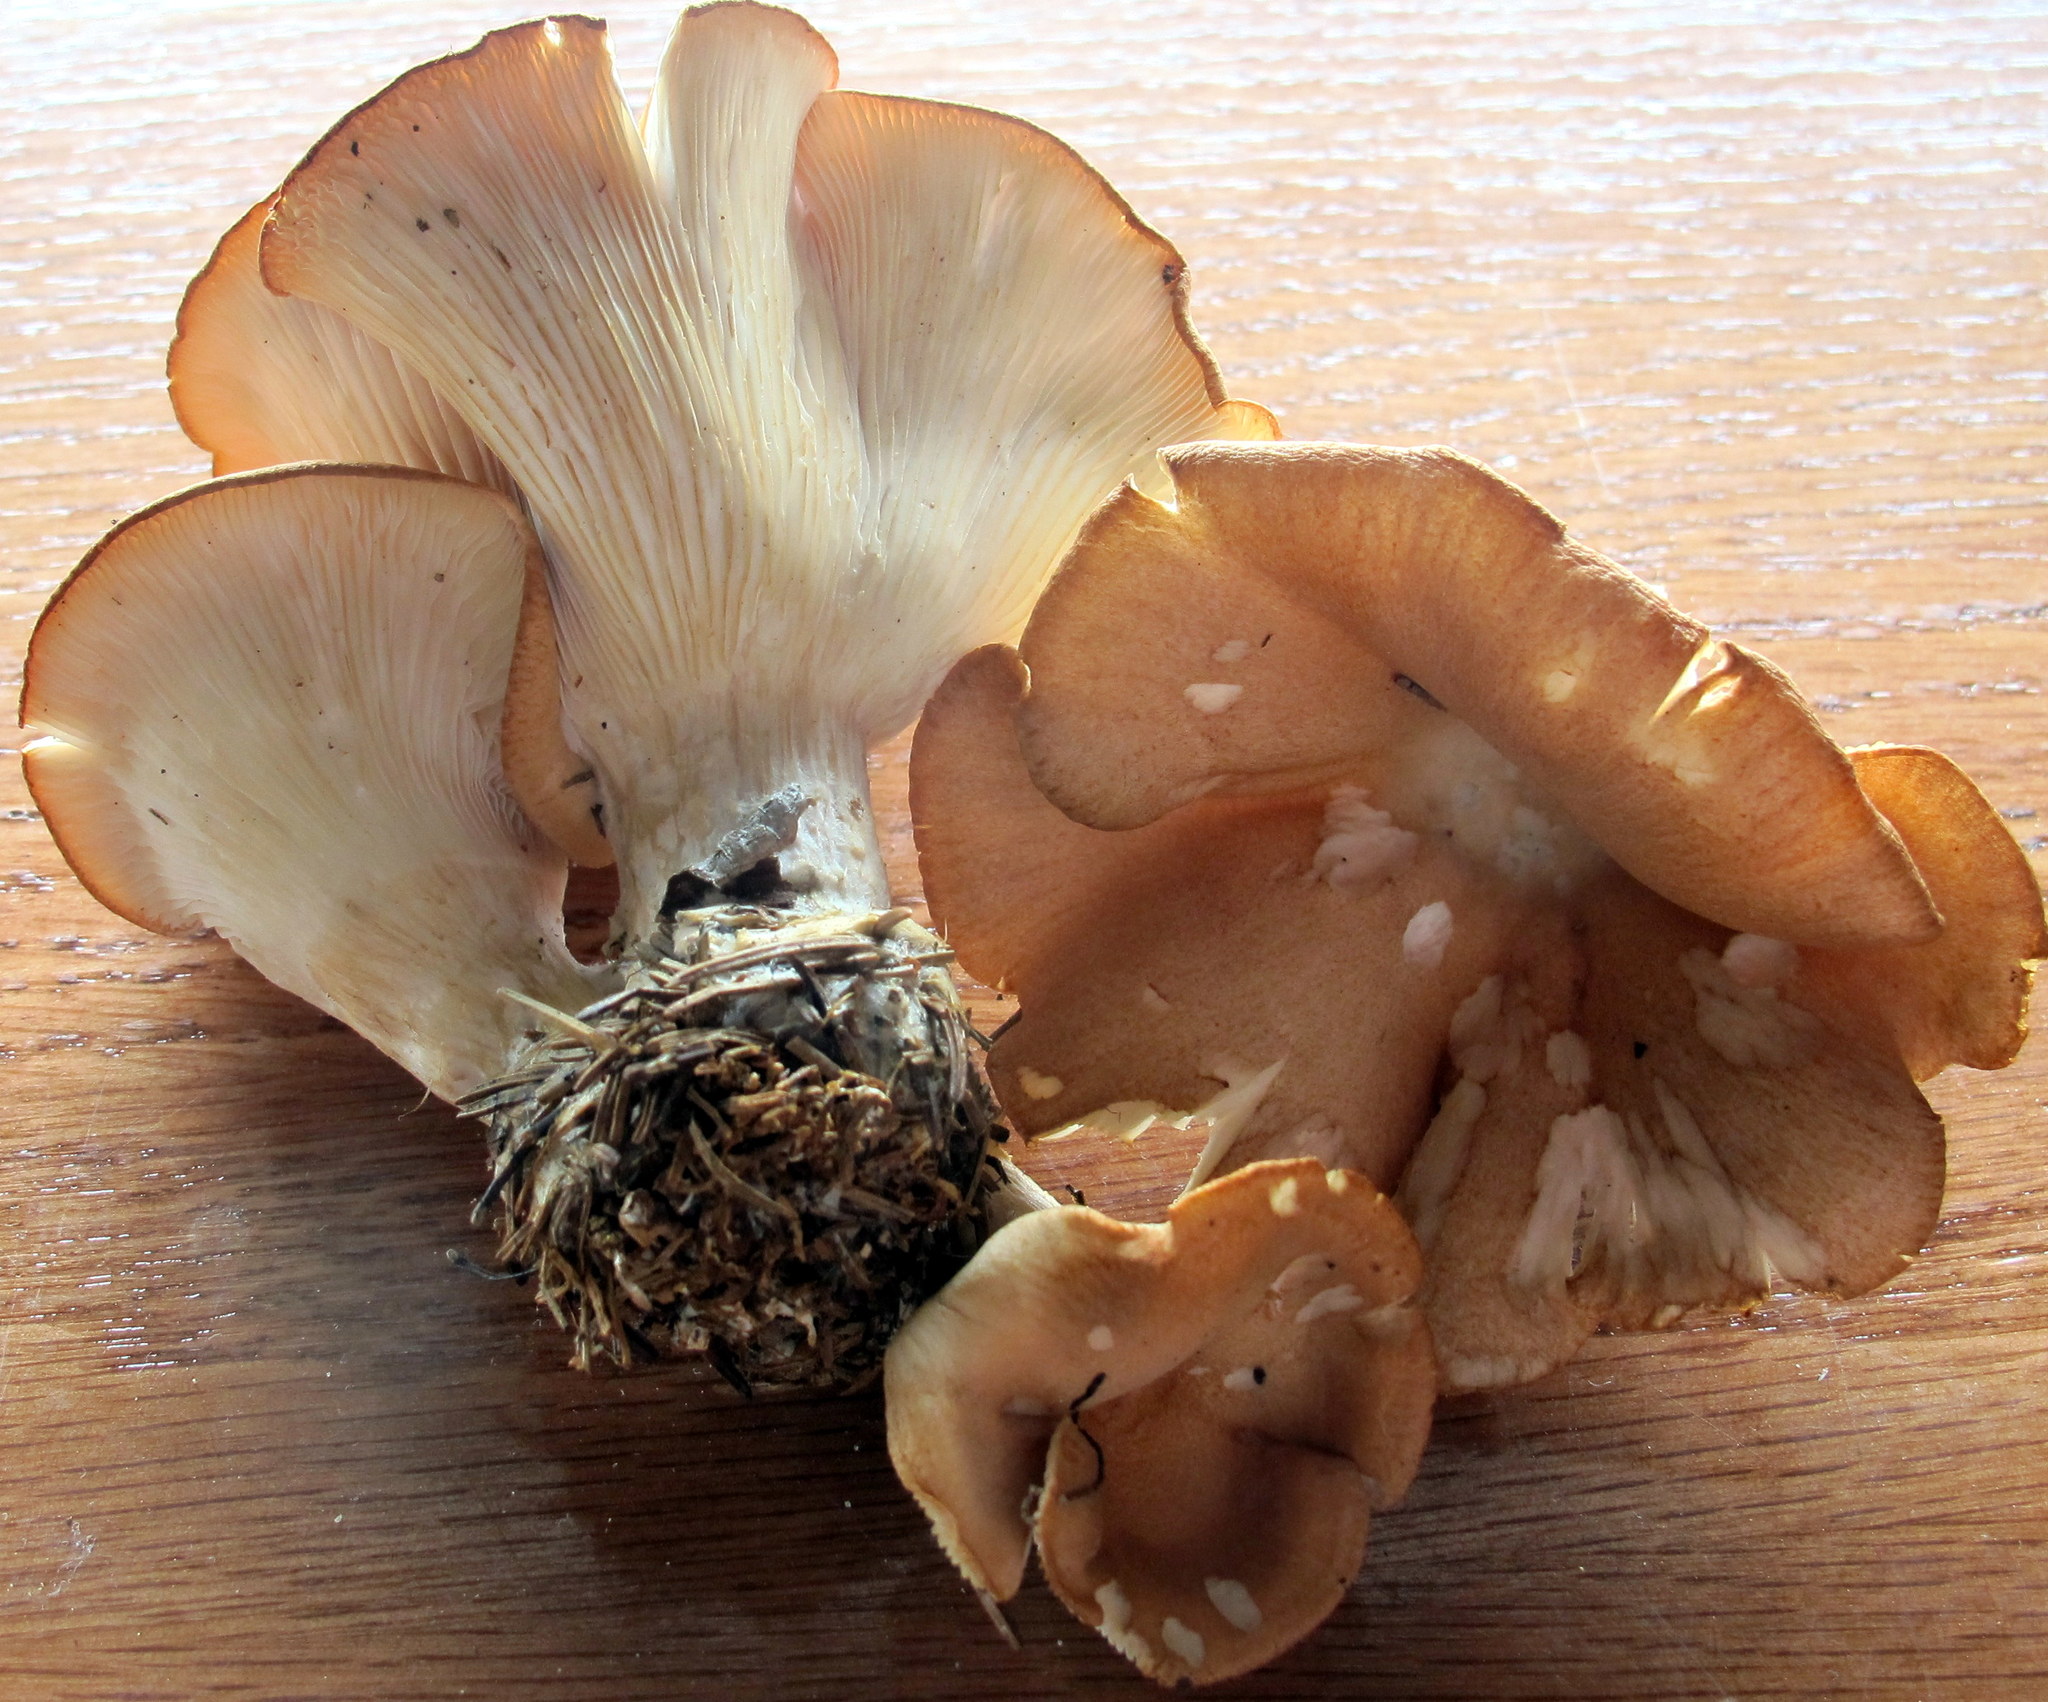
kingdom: Fungi
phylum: Basidiomycota
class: Agaricomycetes
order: Agaricales
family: Pleurotaceae
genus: Hohenbuehelia
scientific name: Hohenbuehelia petaloides
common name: Shoehorn oyster
